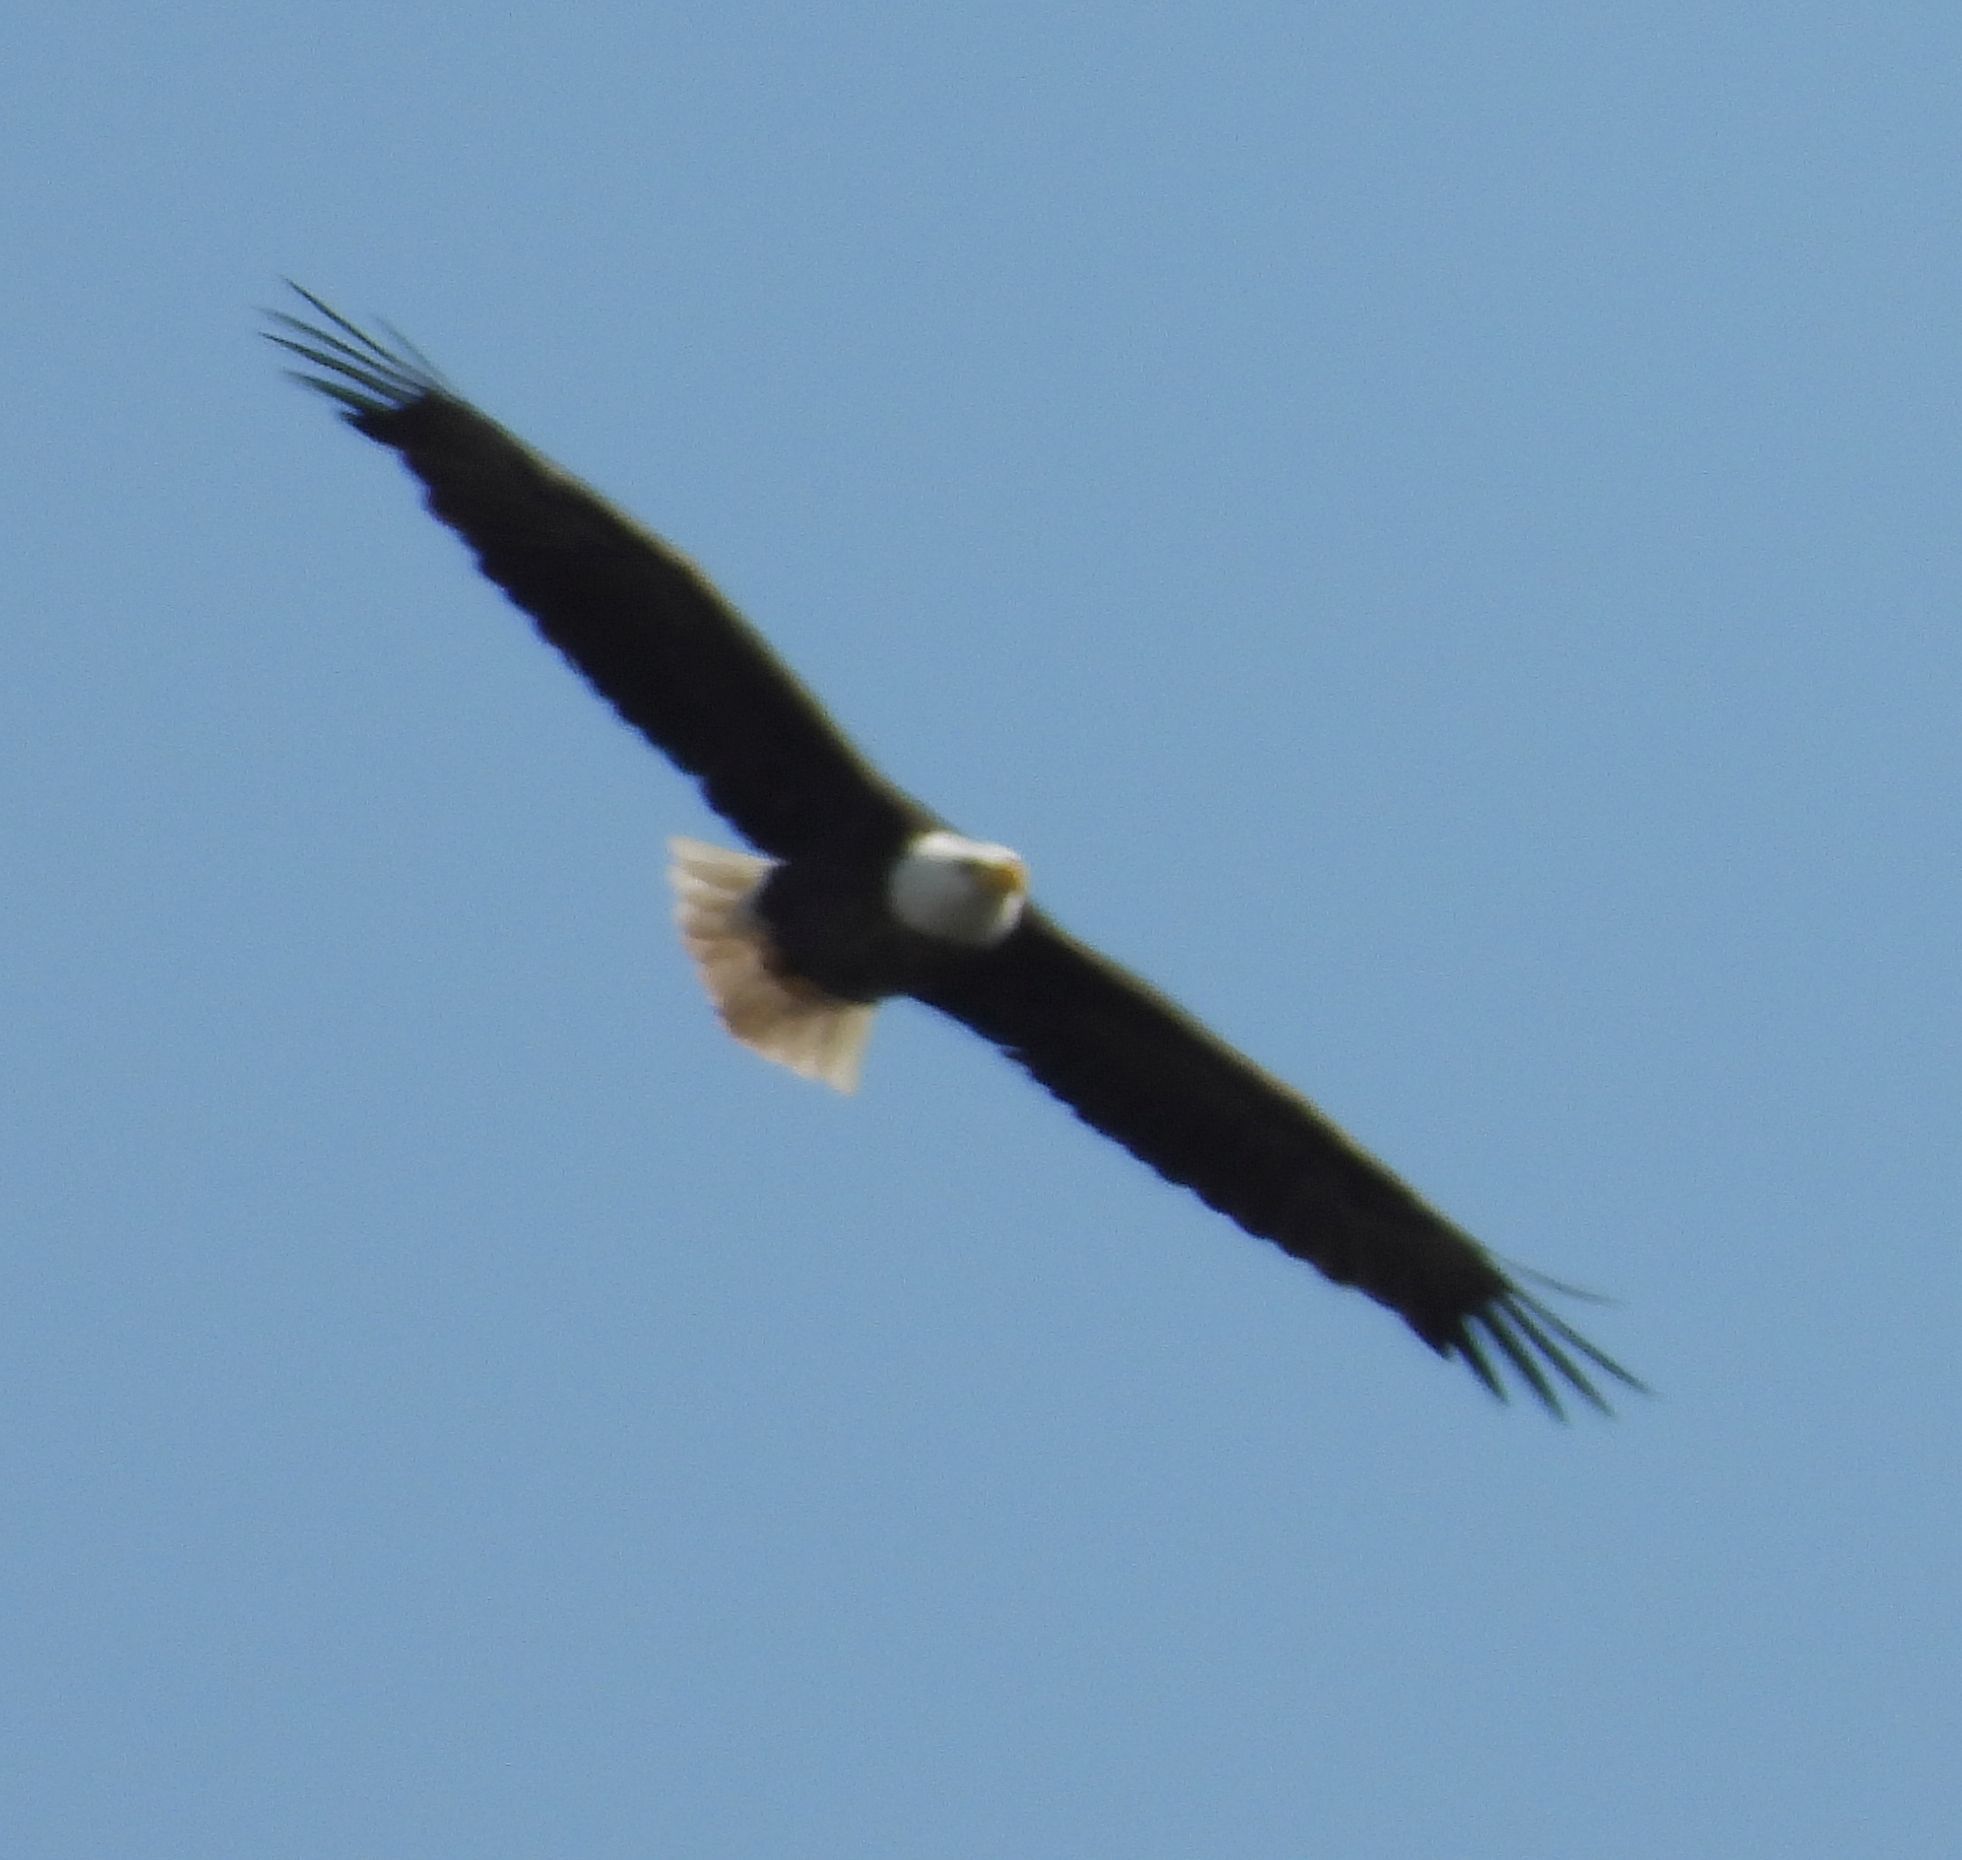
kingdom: Animalia
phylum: Chordata
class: Aves
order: Accipitriformes
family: Accipitridae
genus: Haliaeetus
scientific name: Haliaeetus leucocephalus
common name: Bald eagle
